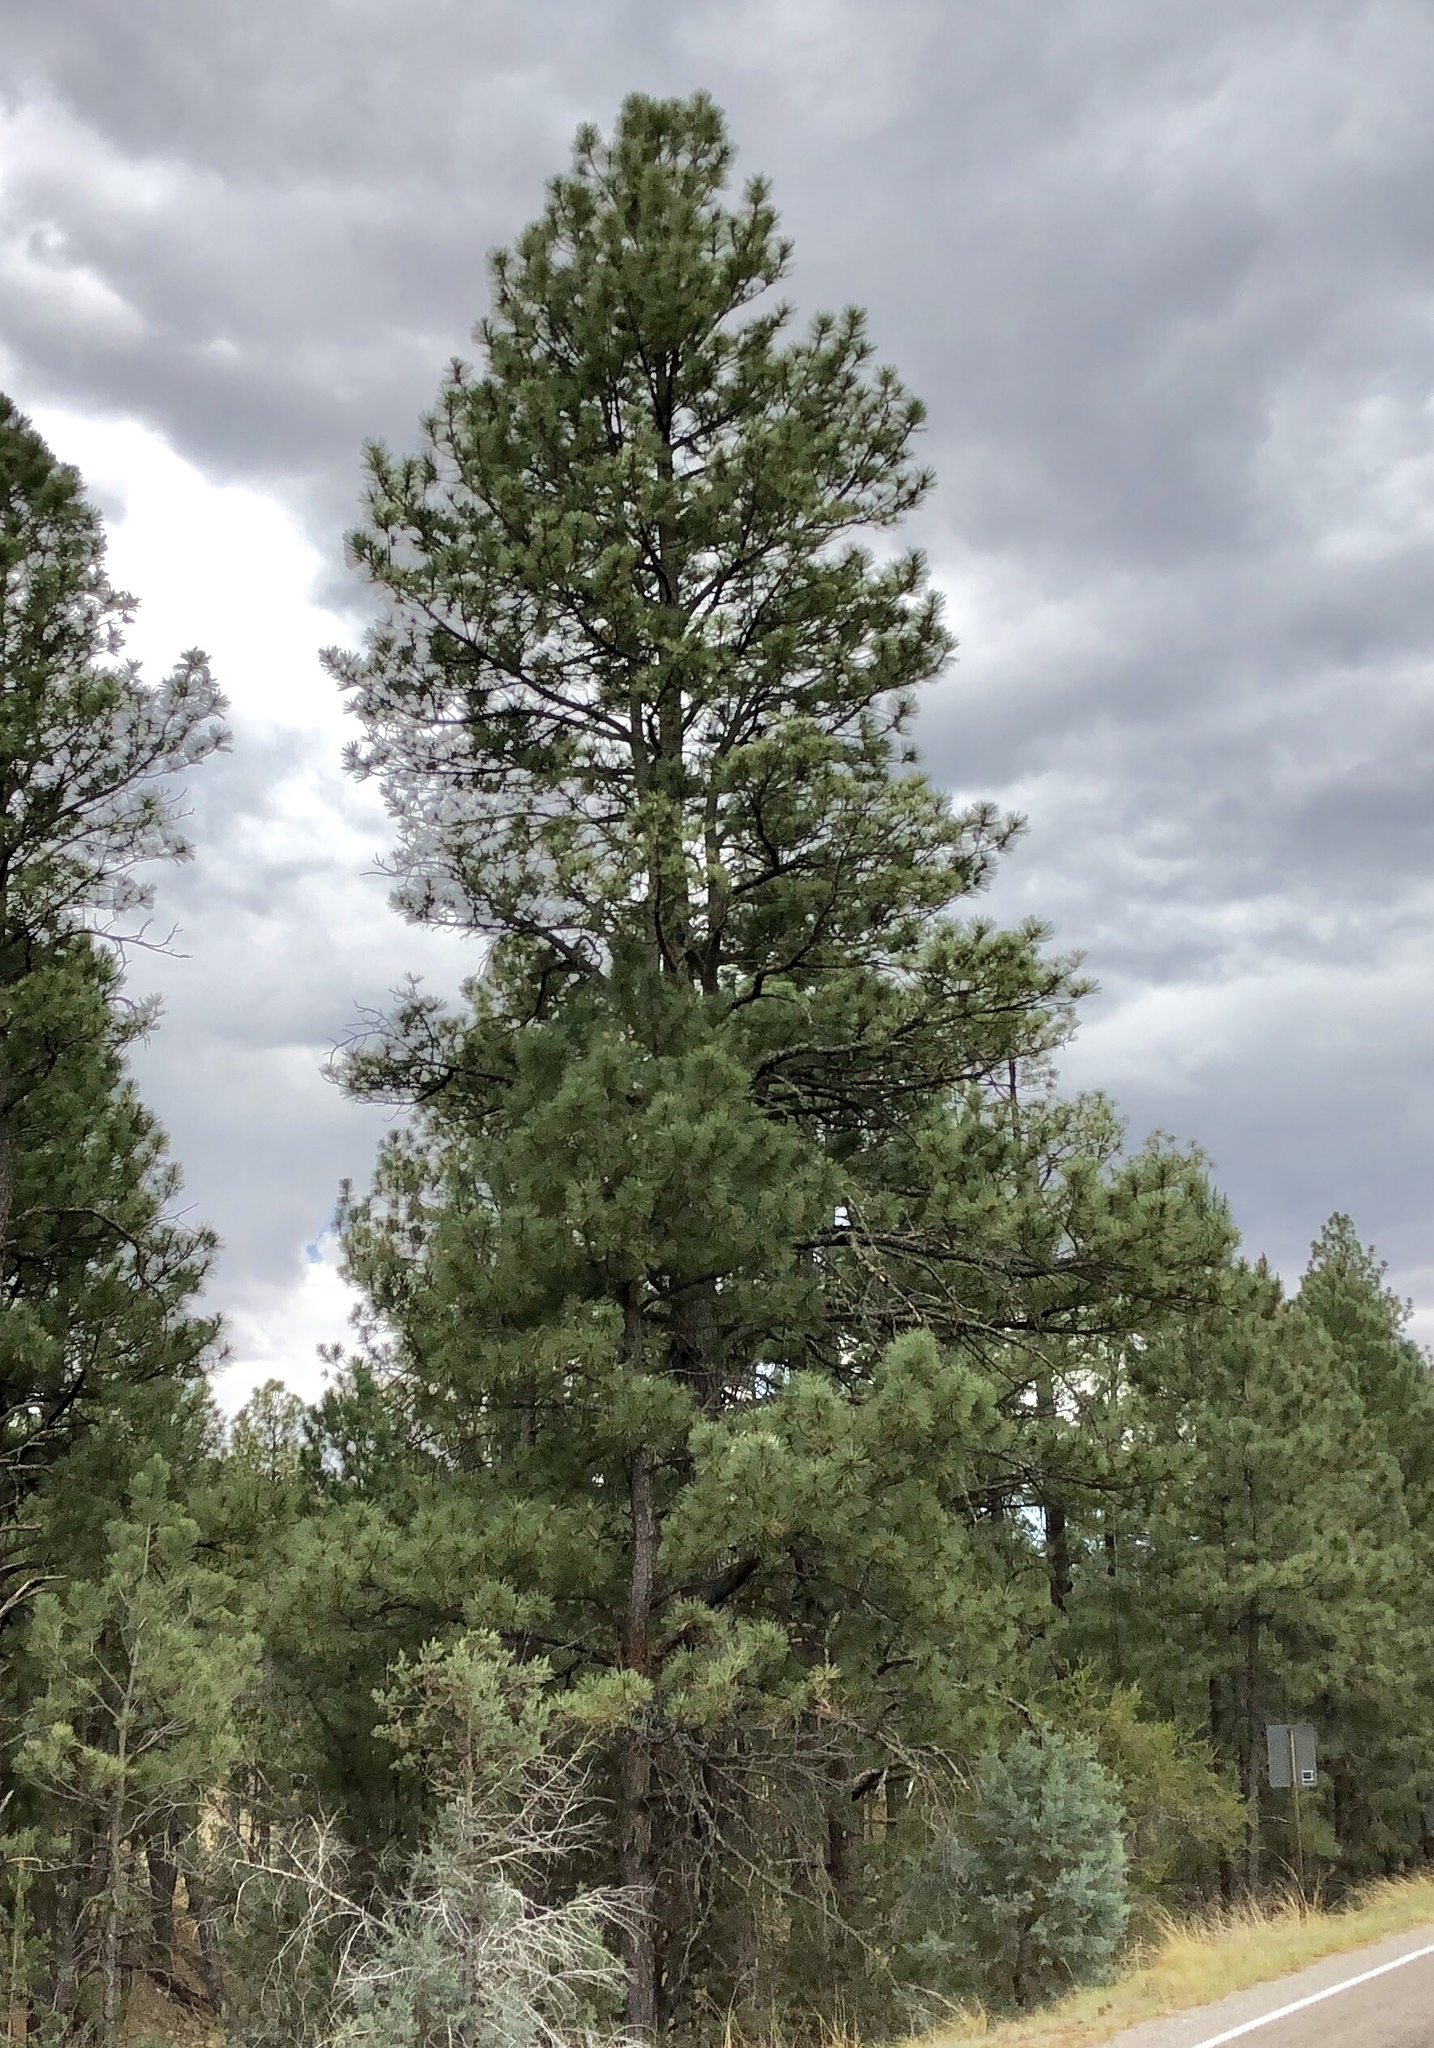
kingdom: Plantae
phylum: Tracheophyta
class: Pinopsida
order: Pinales
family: Pinaceae
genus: Pinus
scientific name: Pinus ponderosa
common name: Western yellow-pine
